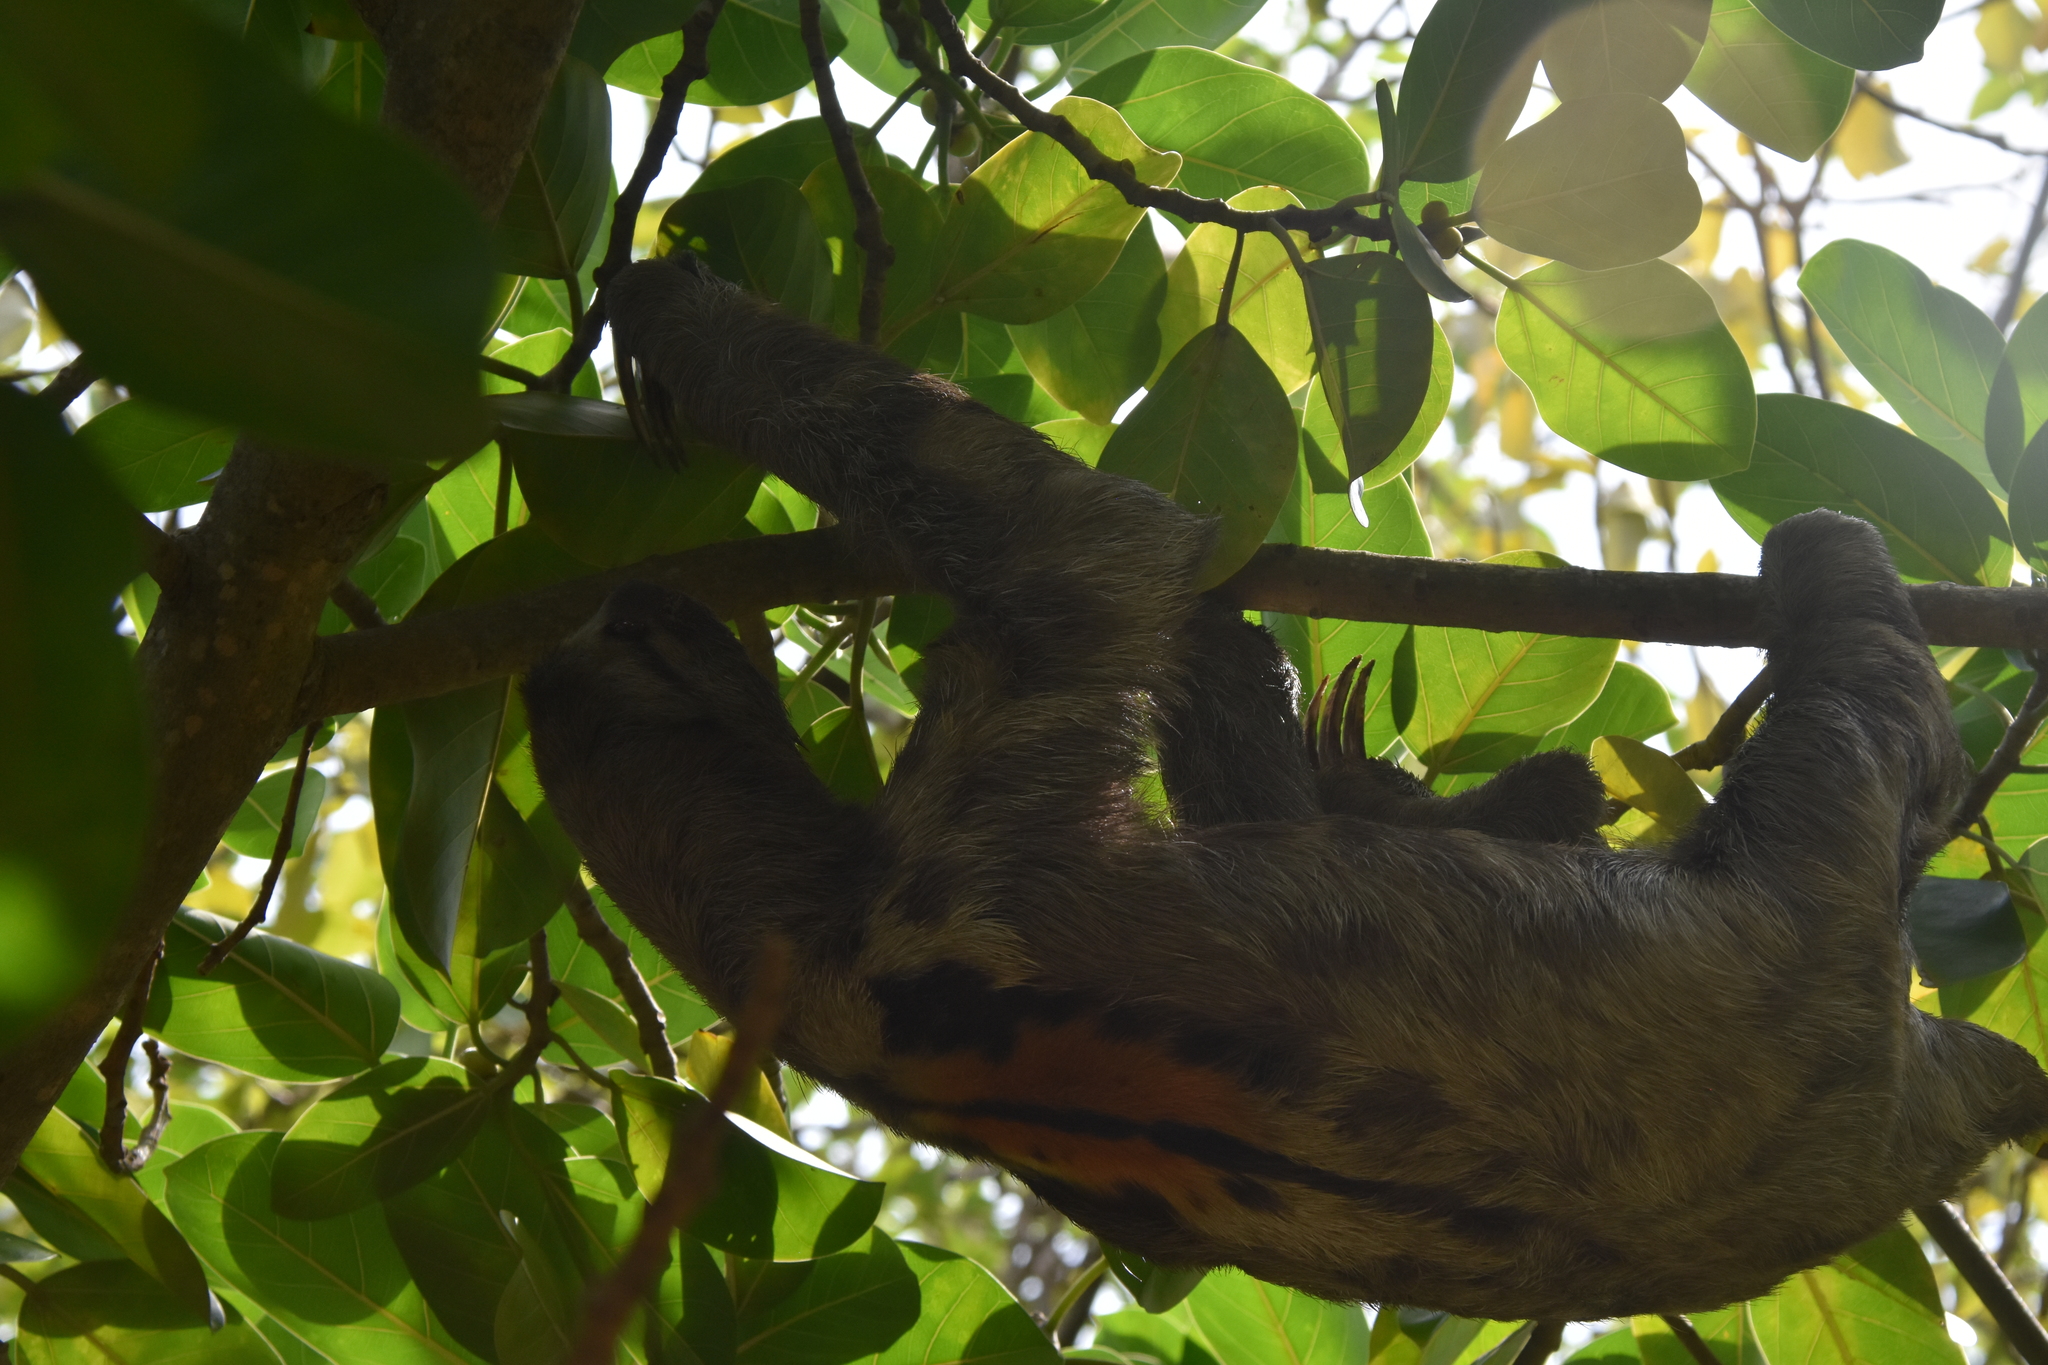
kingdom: Animalia
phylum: Chordata
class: Mammalia
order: Pilosa
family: Bradypodidae
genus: Bradypus
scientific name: Bradypus variegatus
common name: Brown-throated three-toed sloth
